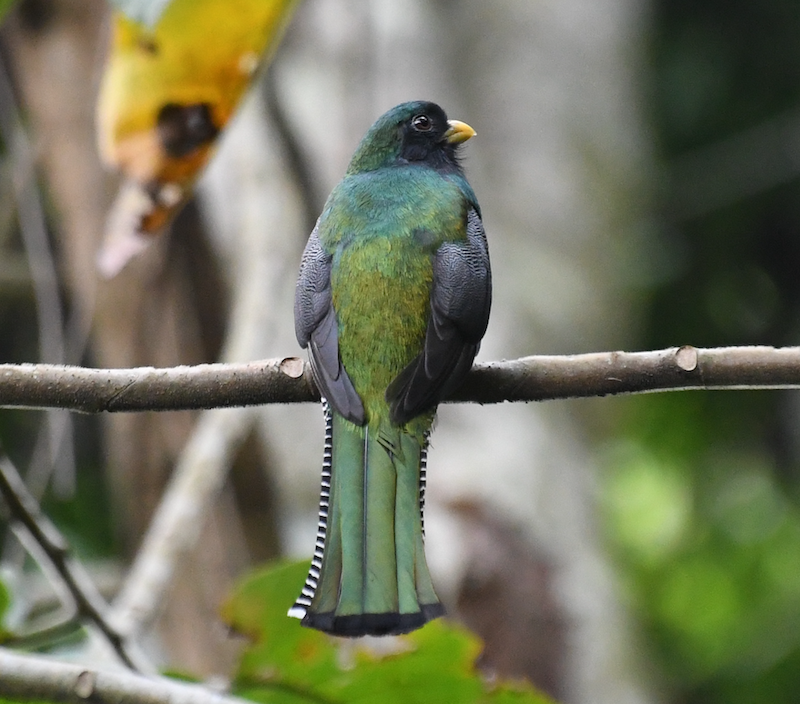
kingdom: Animalia
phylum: Chordata
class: Aves
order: Trogoniformes
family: Trogonidae
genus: Trogon
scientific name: Trogon collaris
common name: Collared trogon
